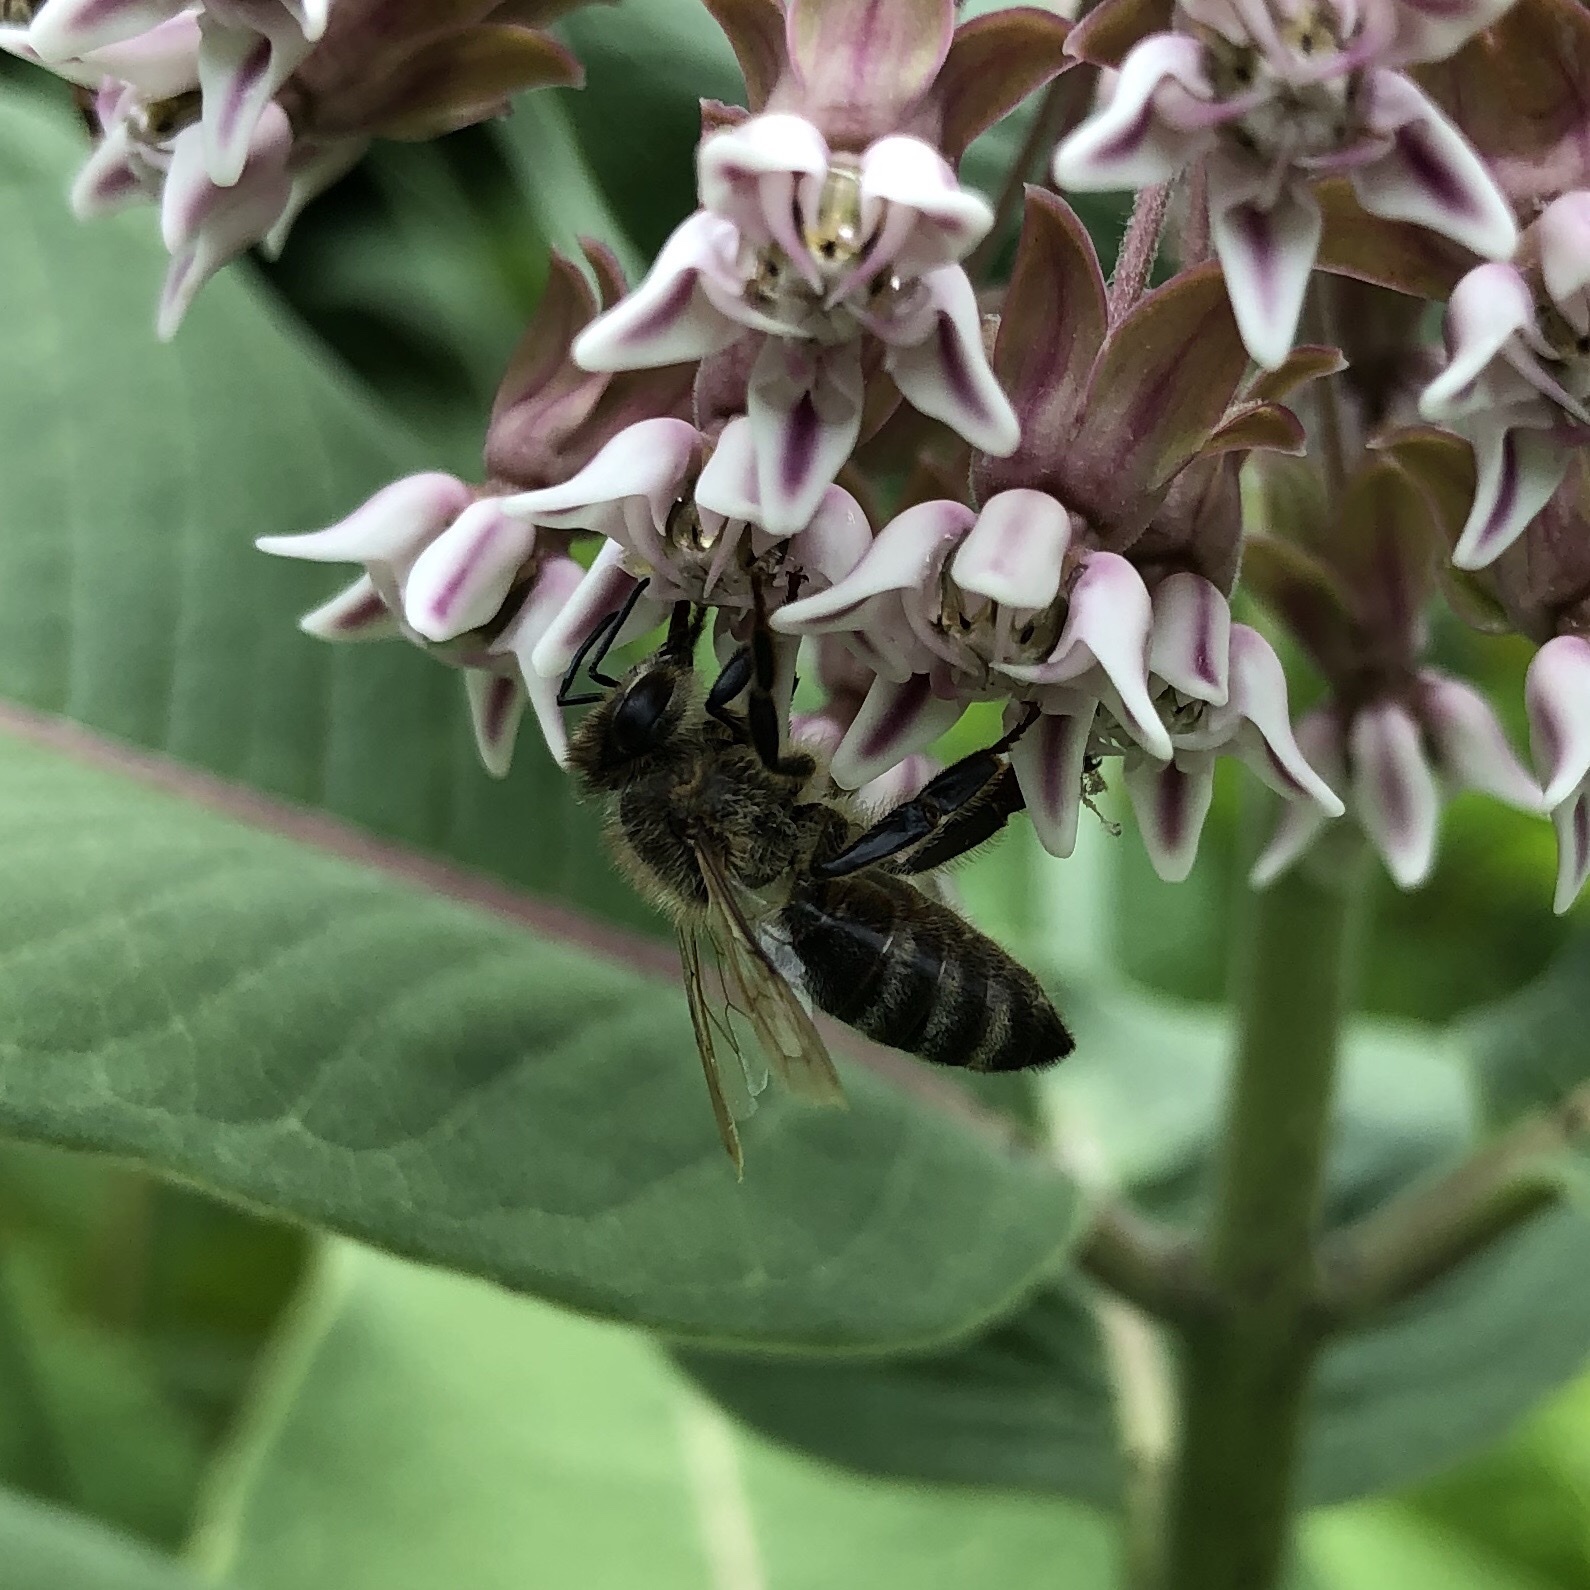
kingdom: Animalia
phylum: Arthropoda
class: Insecta
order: Hymenoptera
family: Apidae
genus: Apis
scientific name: Apis mellifera
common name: Honey bee
